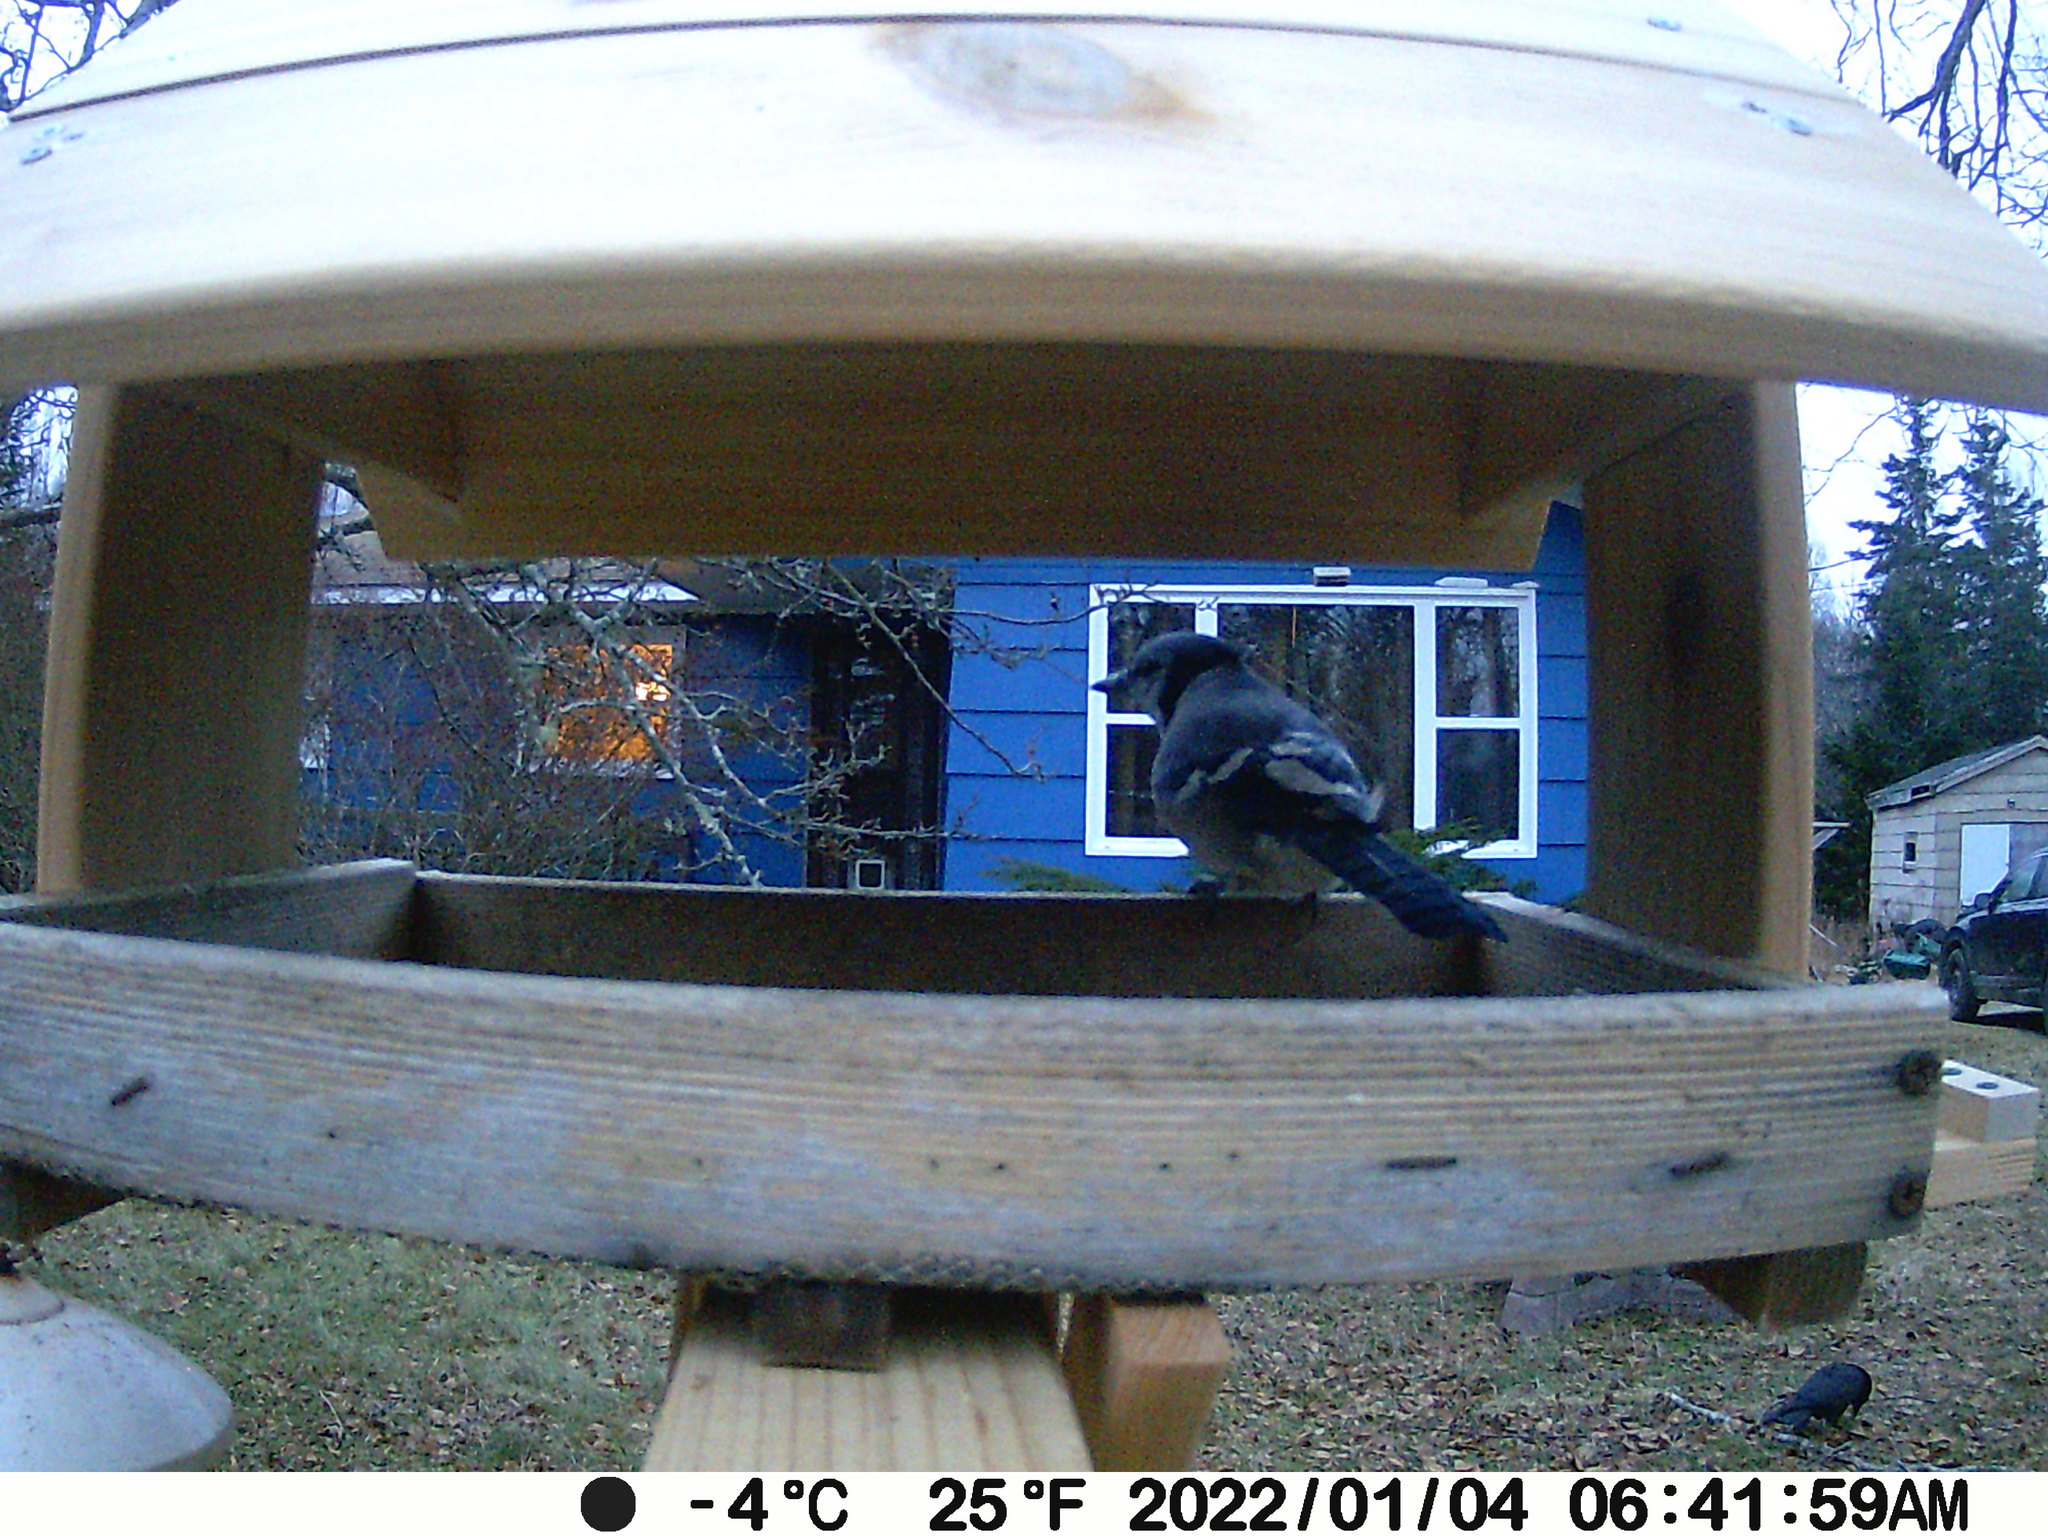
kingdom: Animalia
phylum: Chordata
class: Aves
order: Passeriformes
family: Corvidae
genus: Cyanocitta
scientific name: Cyanocitta cristata
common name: Blue jay
